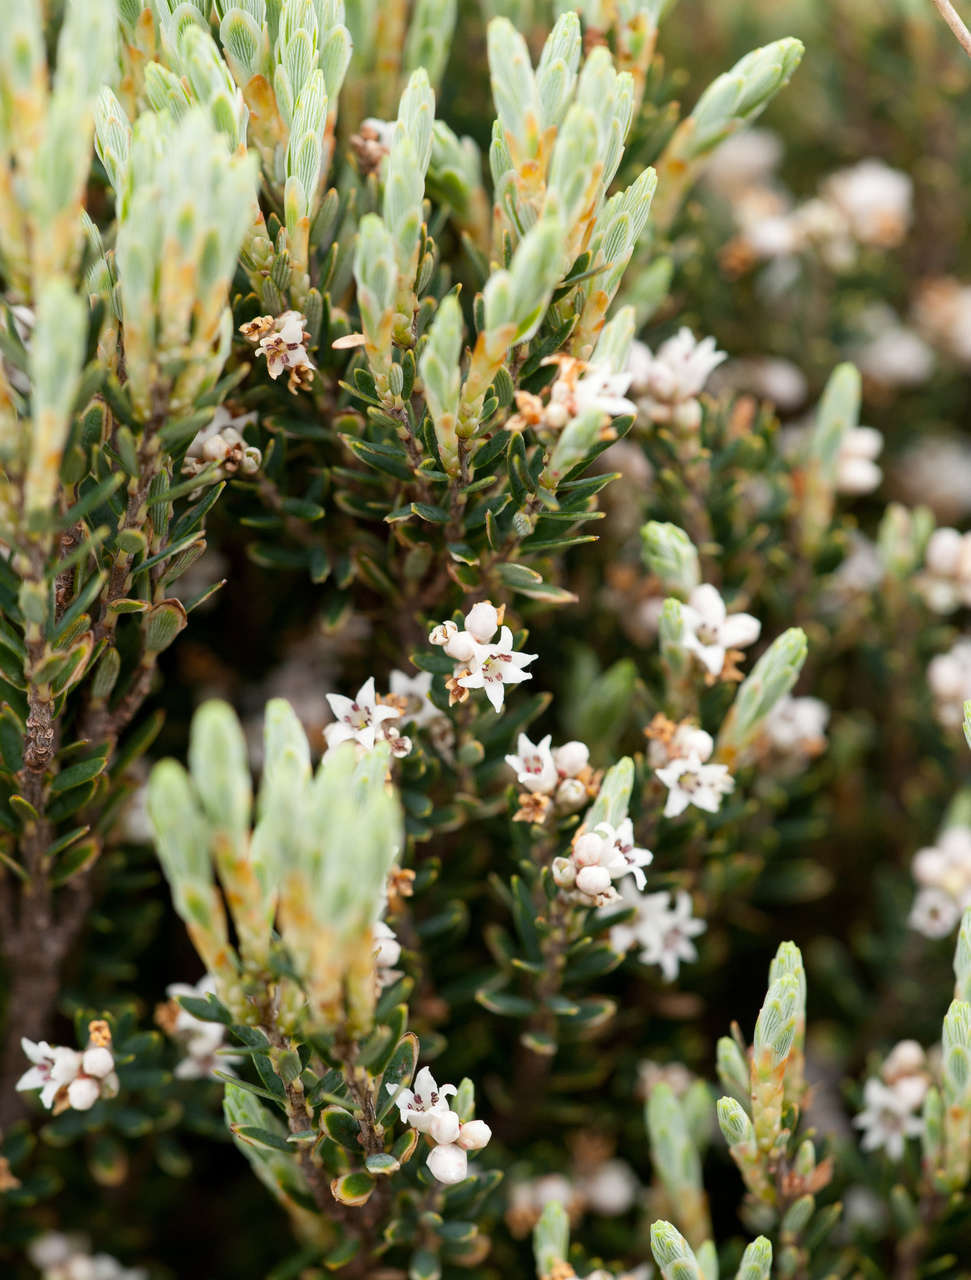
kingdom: Plantae
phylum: Tracheophyta
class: Magnoliopsida
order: Ericales
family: Ericaceae
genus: Acrothamnus
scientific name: Acrothamnus montanus
